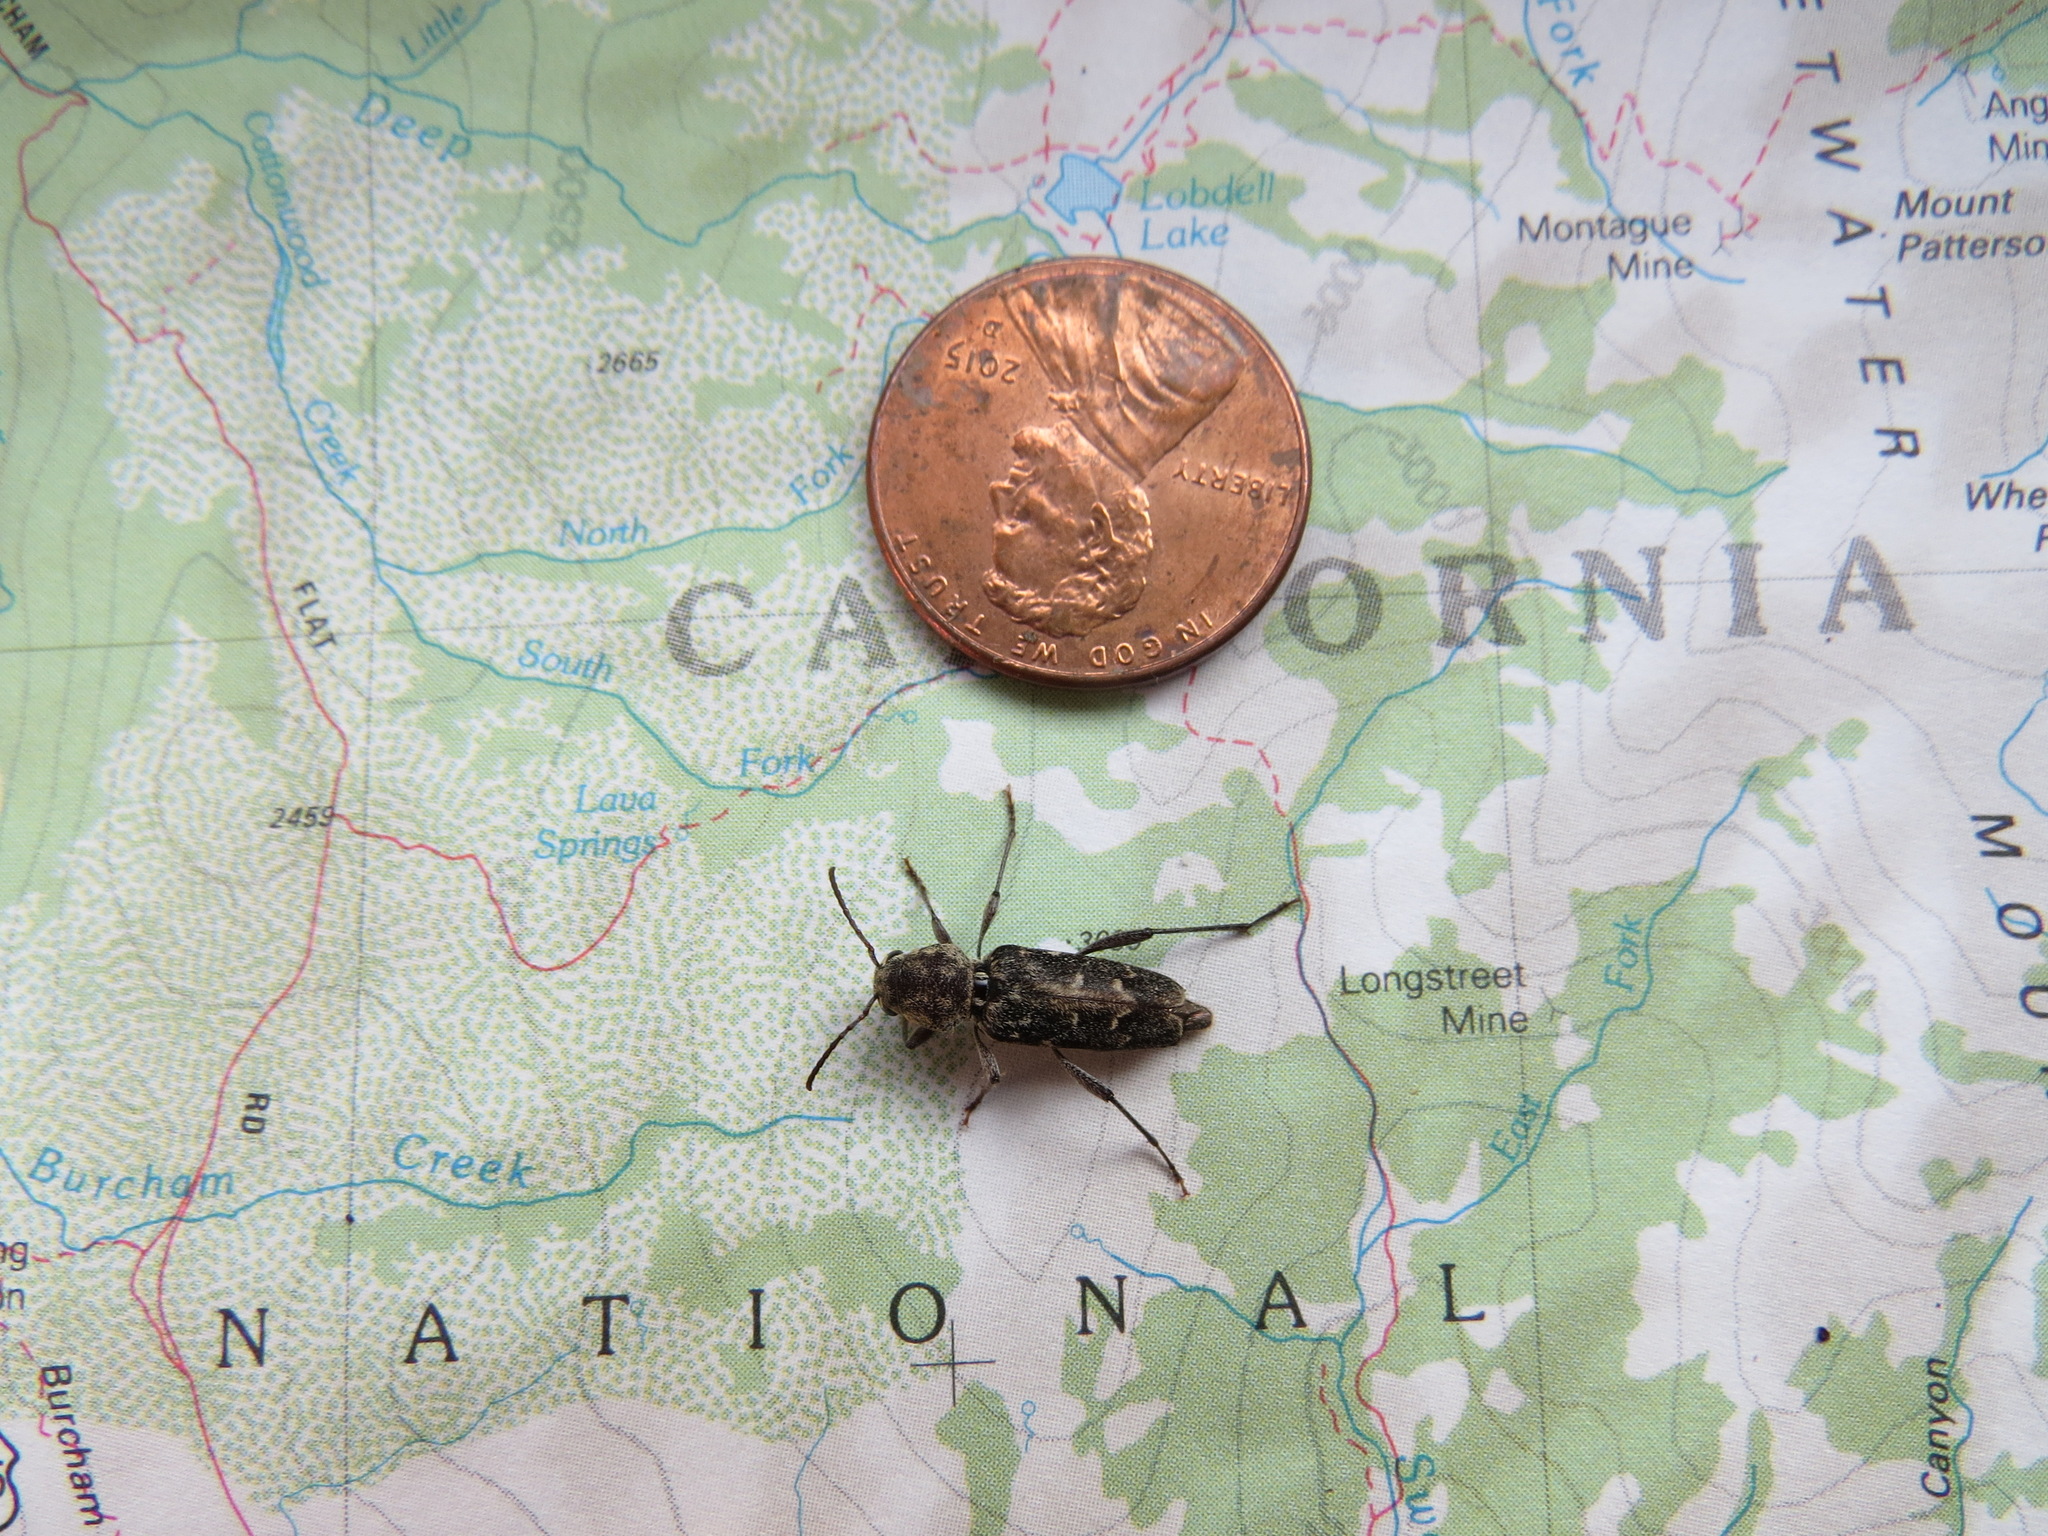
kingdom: Animalia
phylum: Arthropoda
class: Insecta
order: Coleoptera
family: Cerambycidae
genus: Xylotrechus
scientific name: Xylotrechus nauticus
